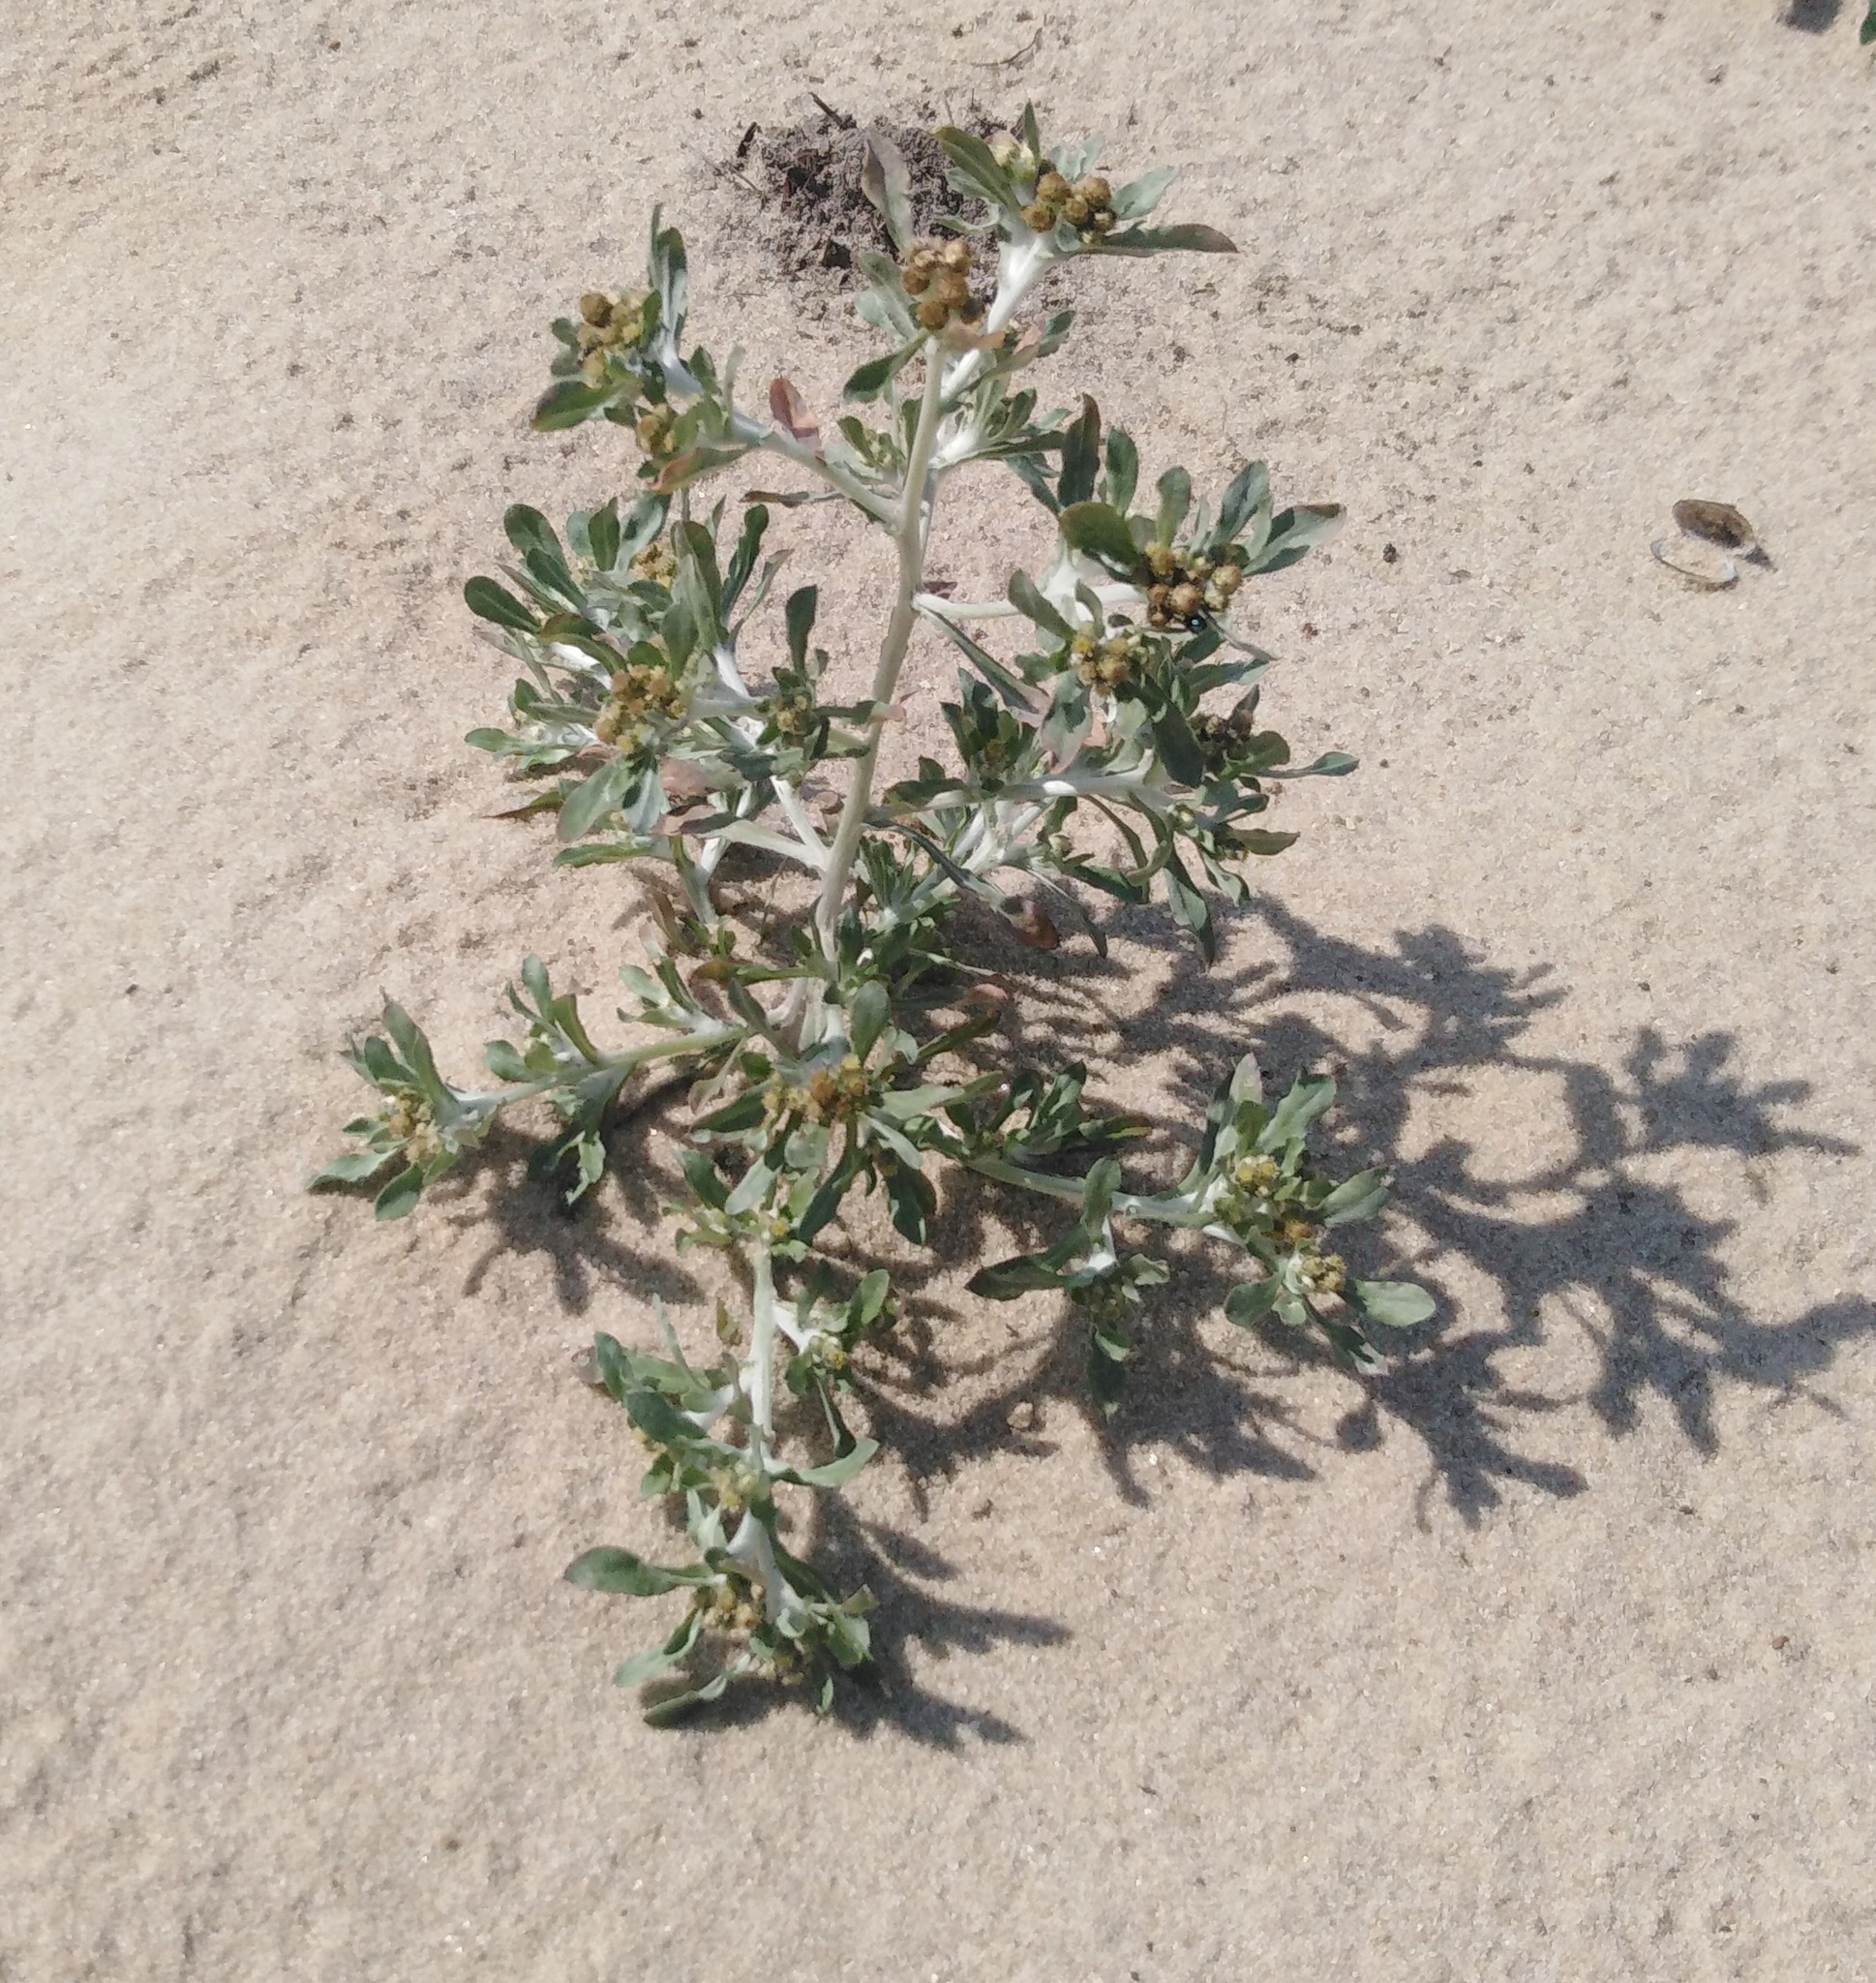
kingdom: Plantae
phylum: Tracheophyta
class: Magnoliopsida
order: Asterales
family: Asteraceae
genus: Gnaphalium
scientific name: Gnaphalium rossicum
